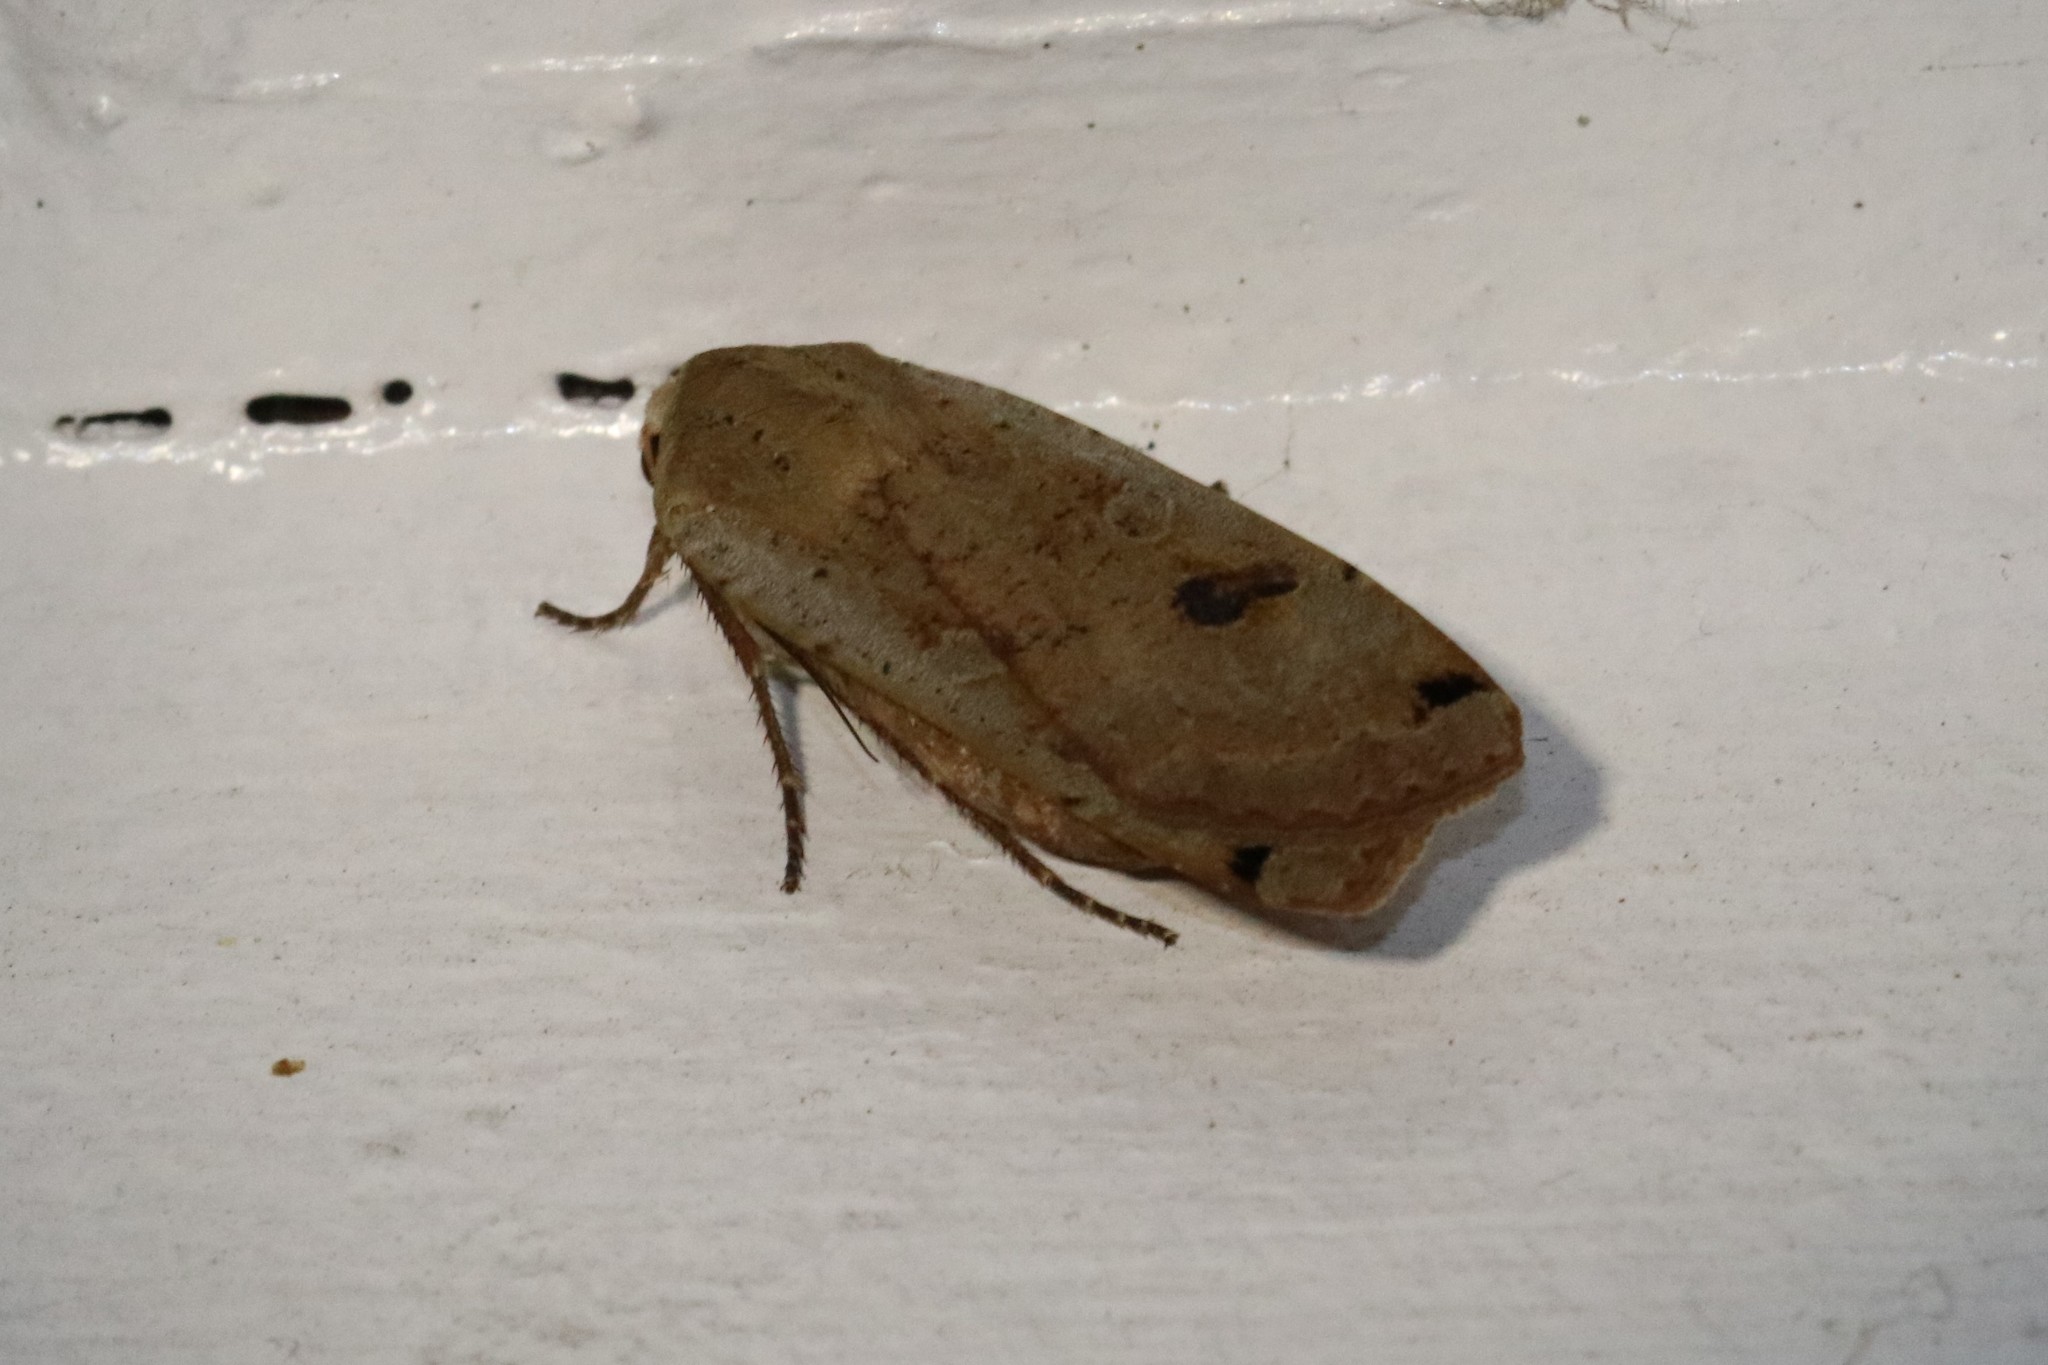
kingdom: Animalia
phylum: Arthropoda
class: Insecta
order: Lepidoptera
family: Noctuidae
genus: Noctua
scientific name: Noctua pronuba
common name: Large yellow underwing
